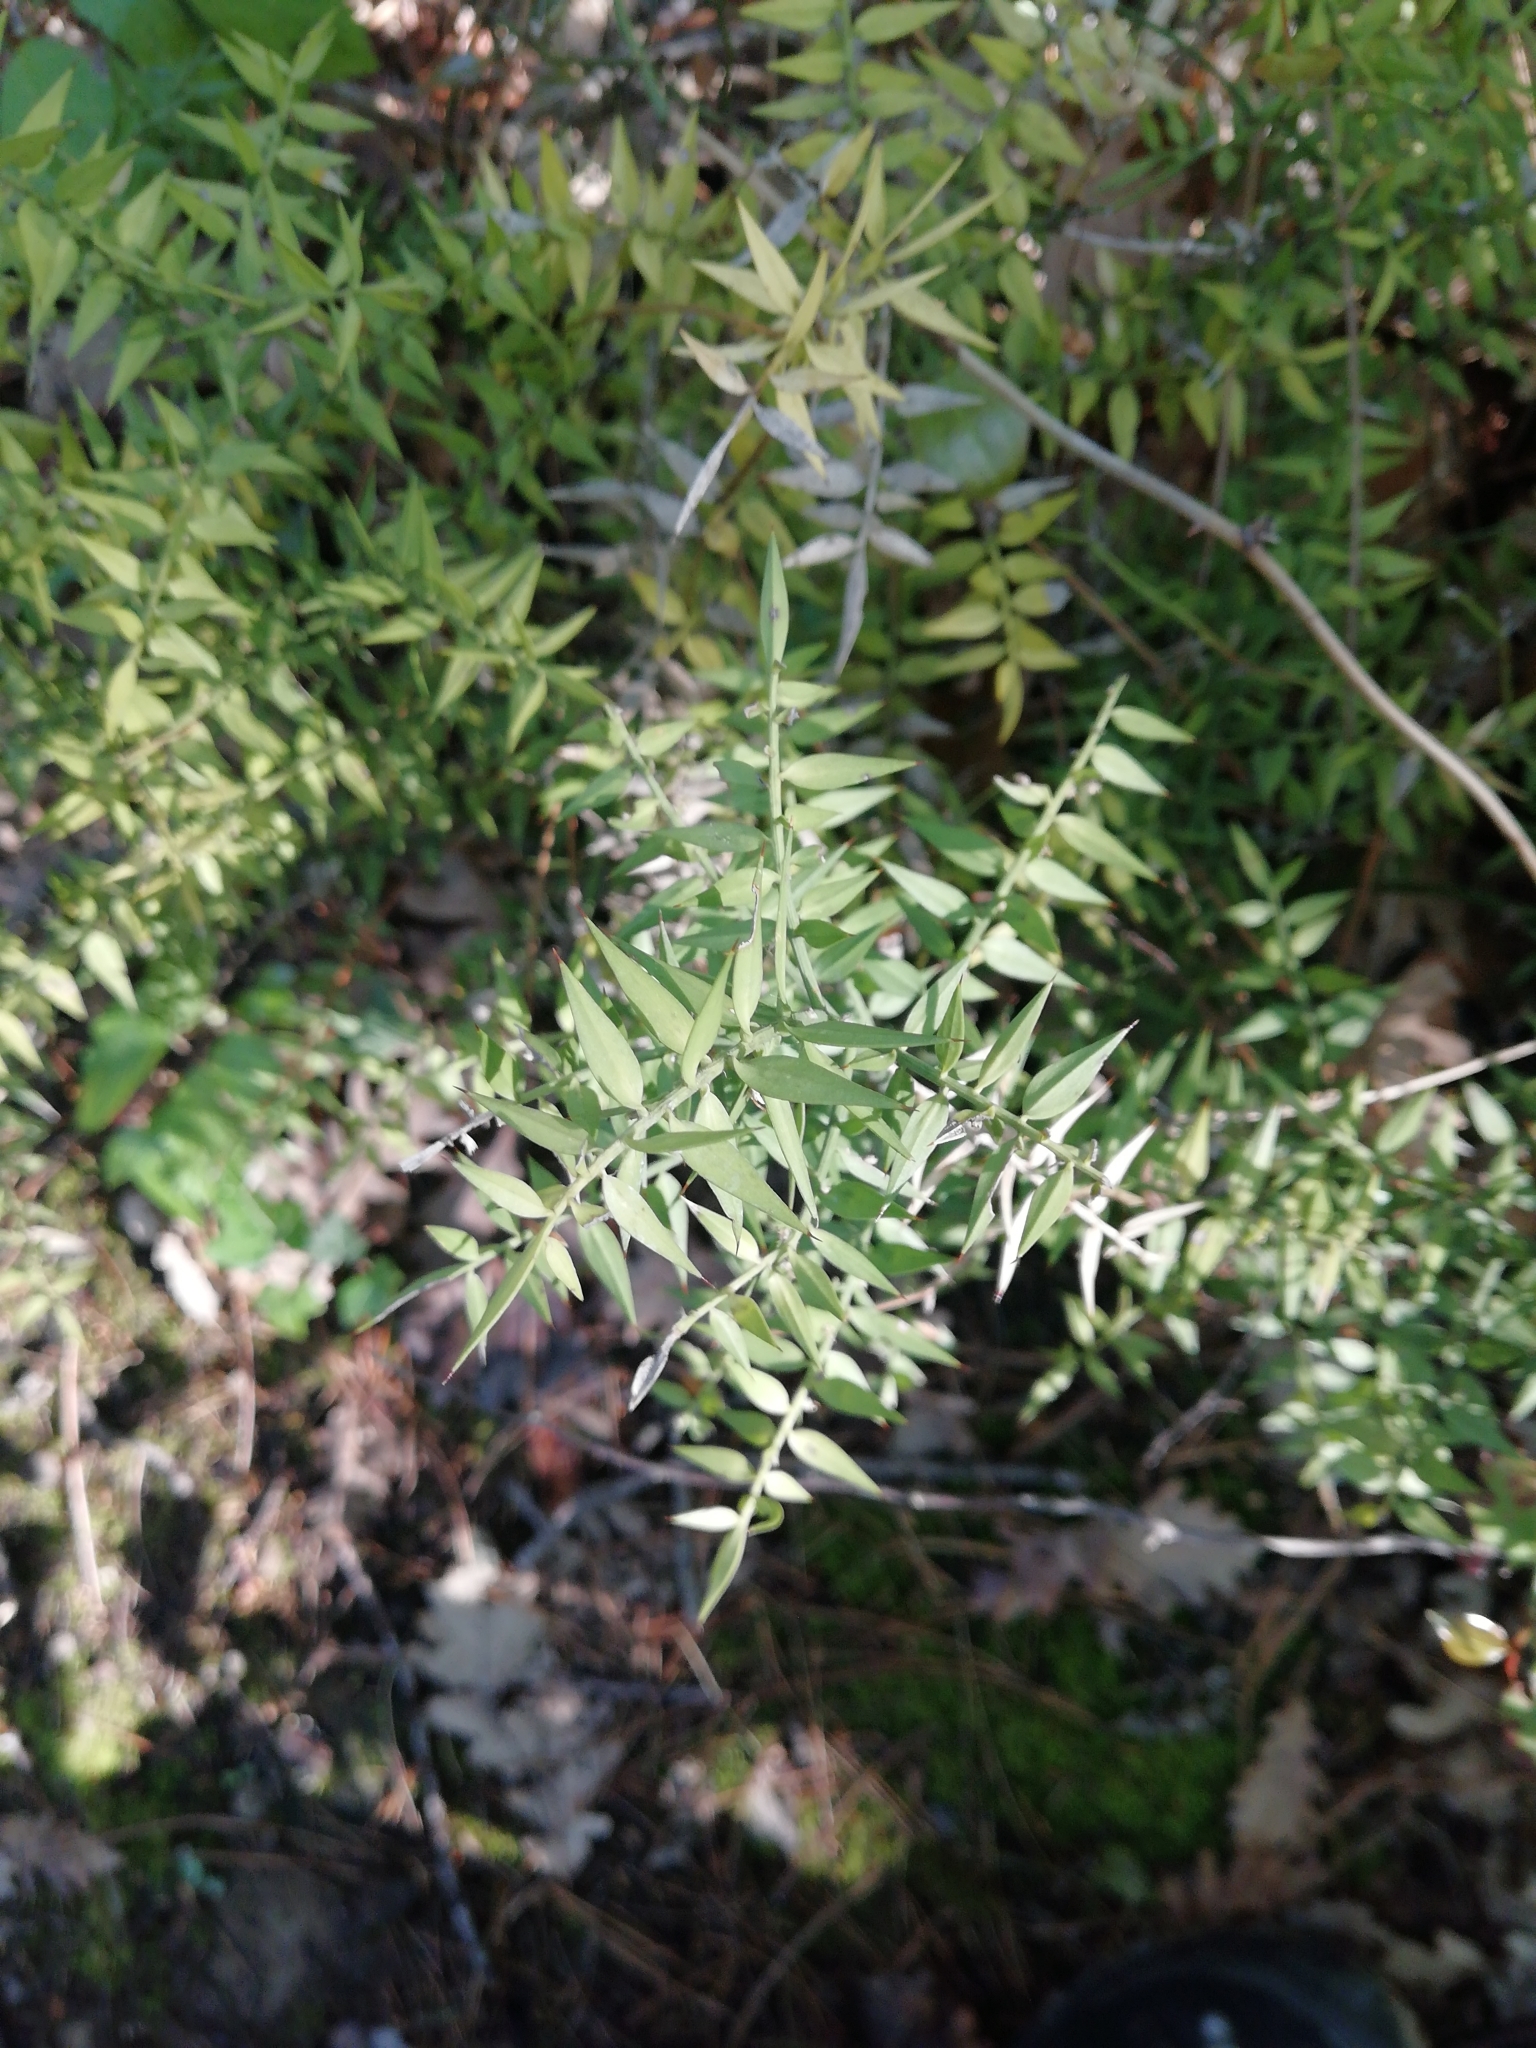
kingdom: Plantae
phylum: Tracheophyta
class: Liliopsida
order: Asparagales
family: Asparagaceae
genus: Ruscus
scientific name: Ruscus aculeatus
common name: Butcher's-broom
